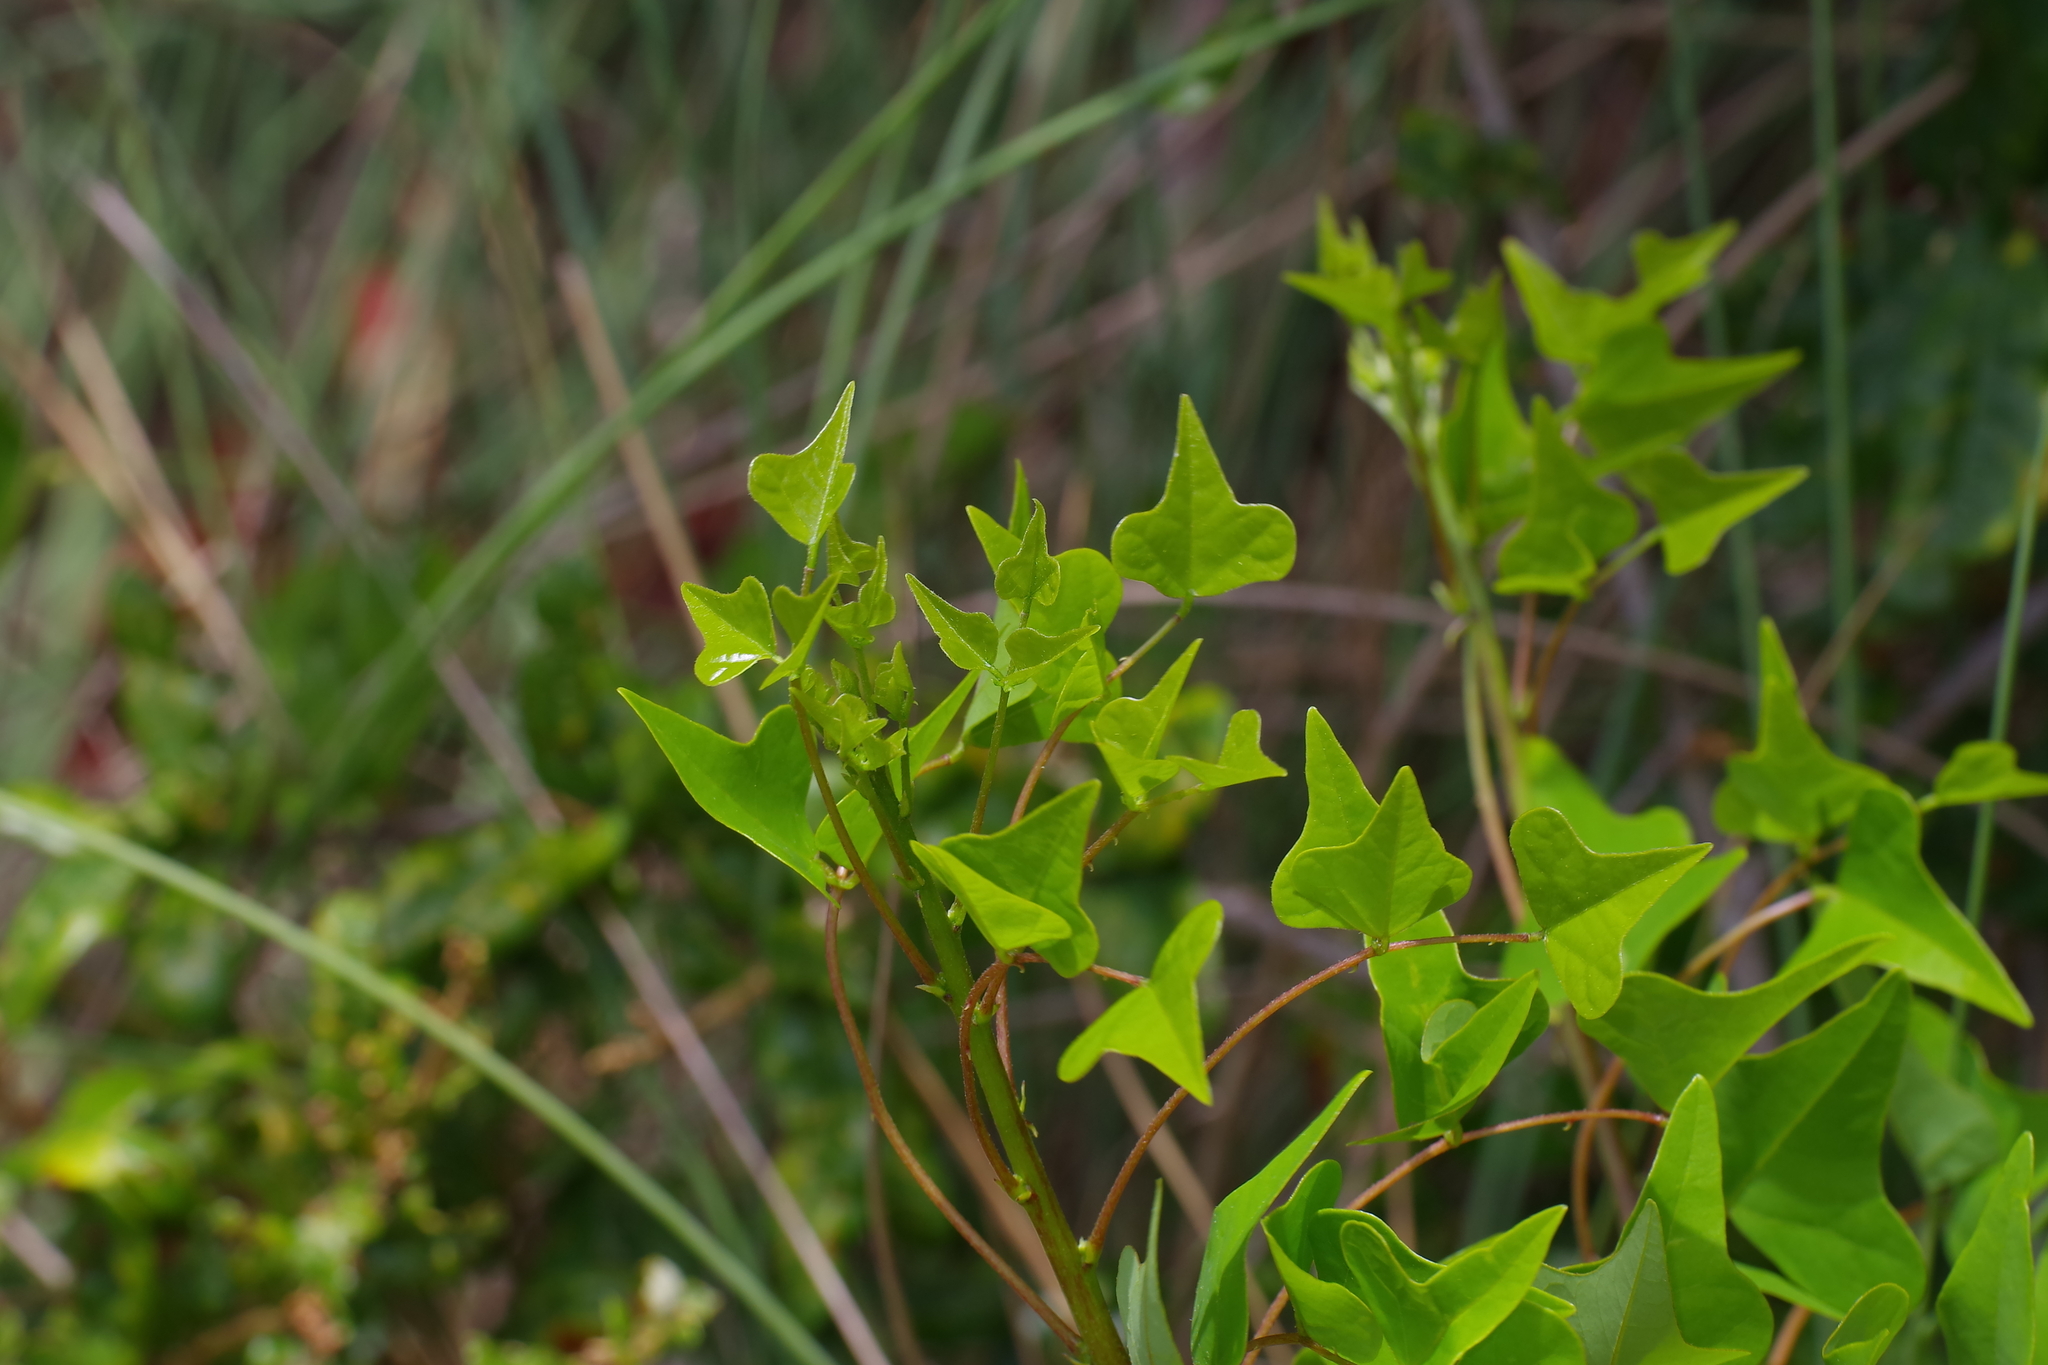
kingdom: Plantae
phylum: Tracheophyta
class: Magnoliopsida
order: Fabales
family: Fabaceae
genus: Erythrina
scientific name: Erythrina herbacea
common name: Coral-bean
